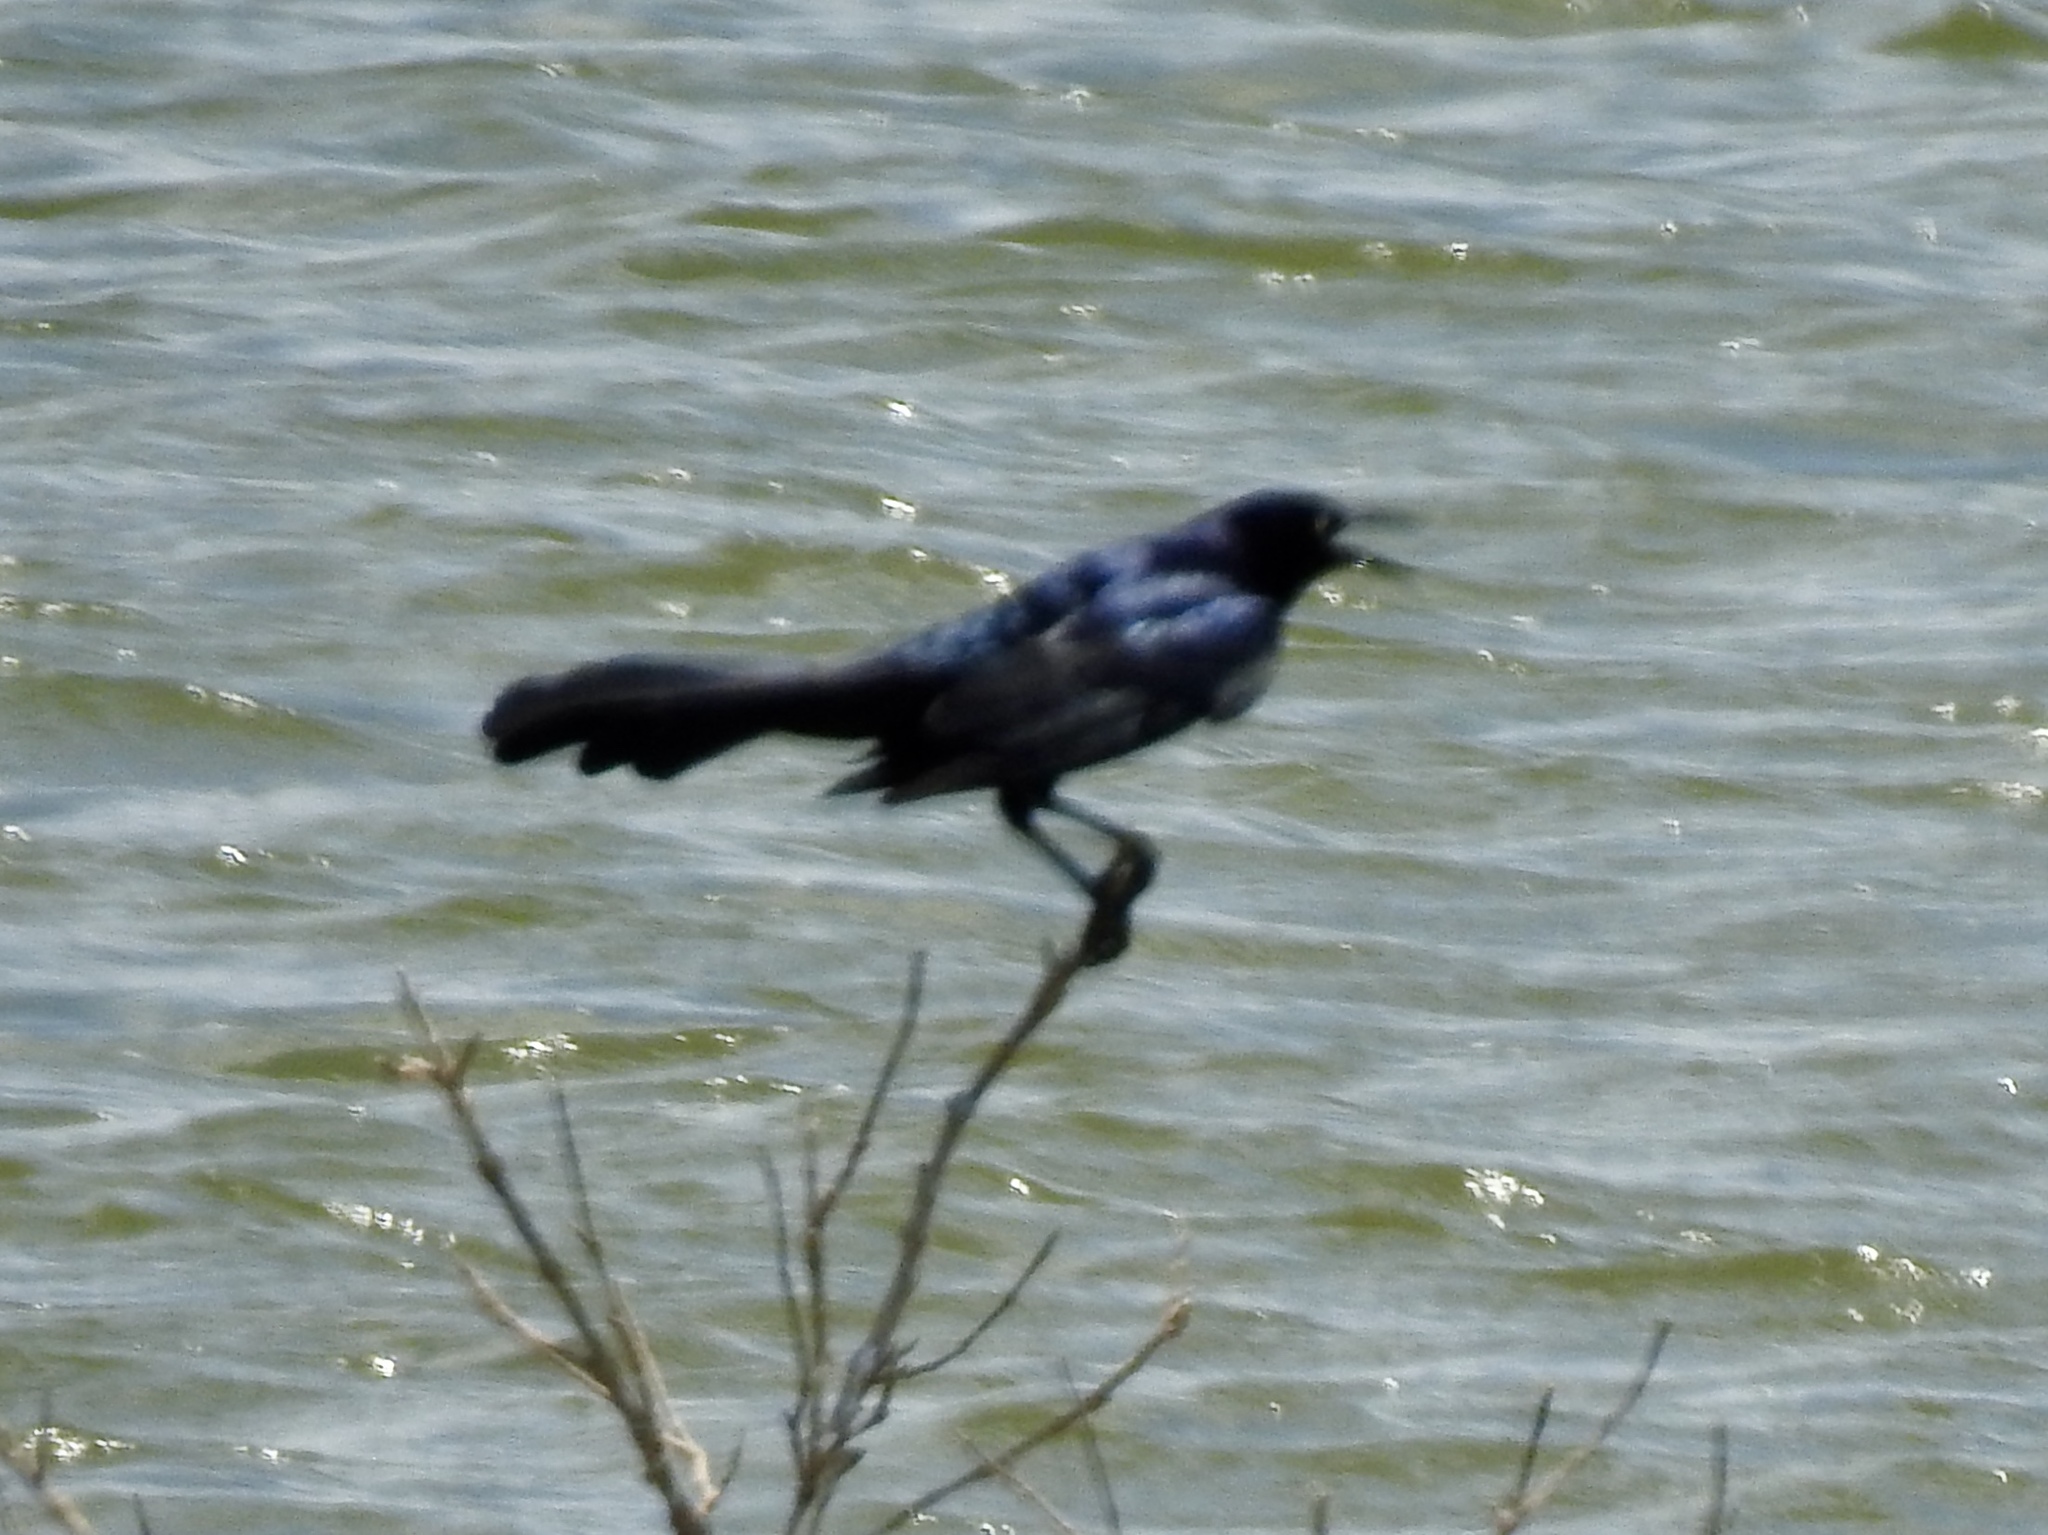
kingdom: Animalia
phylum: Chordata
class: Aves
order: Passeriformes
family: Icteridae
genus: Quiscalus
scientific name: Quiscalus major
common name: Boat-tailed grackle
